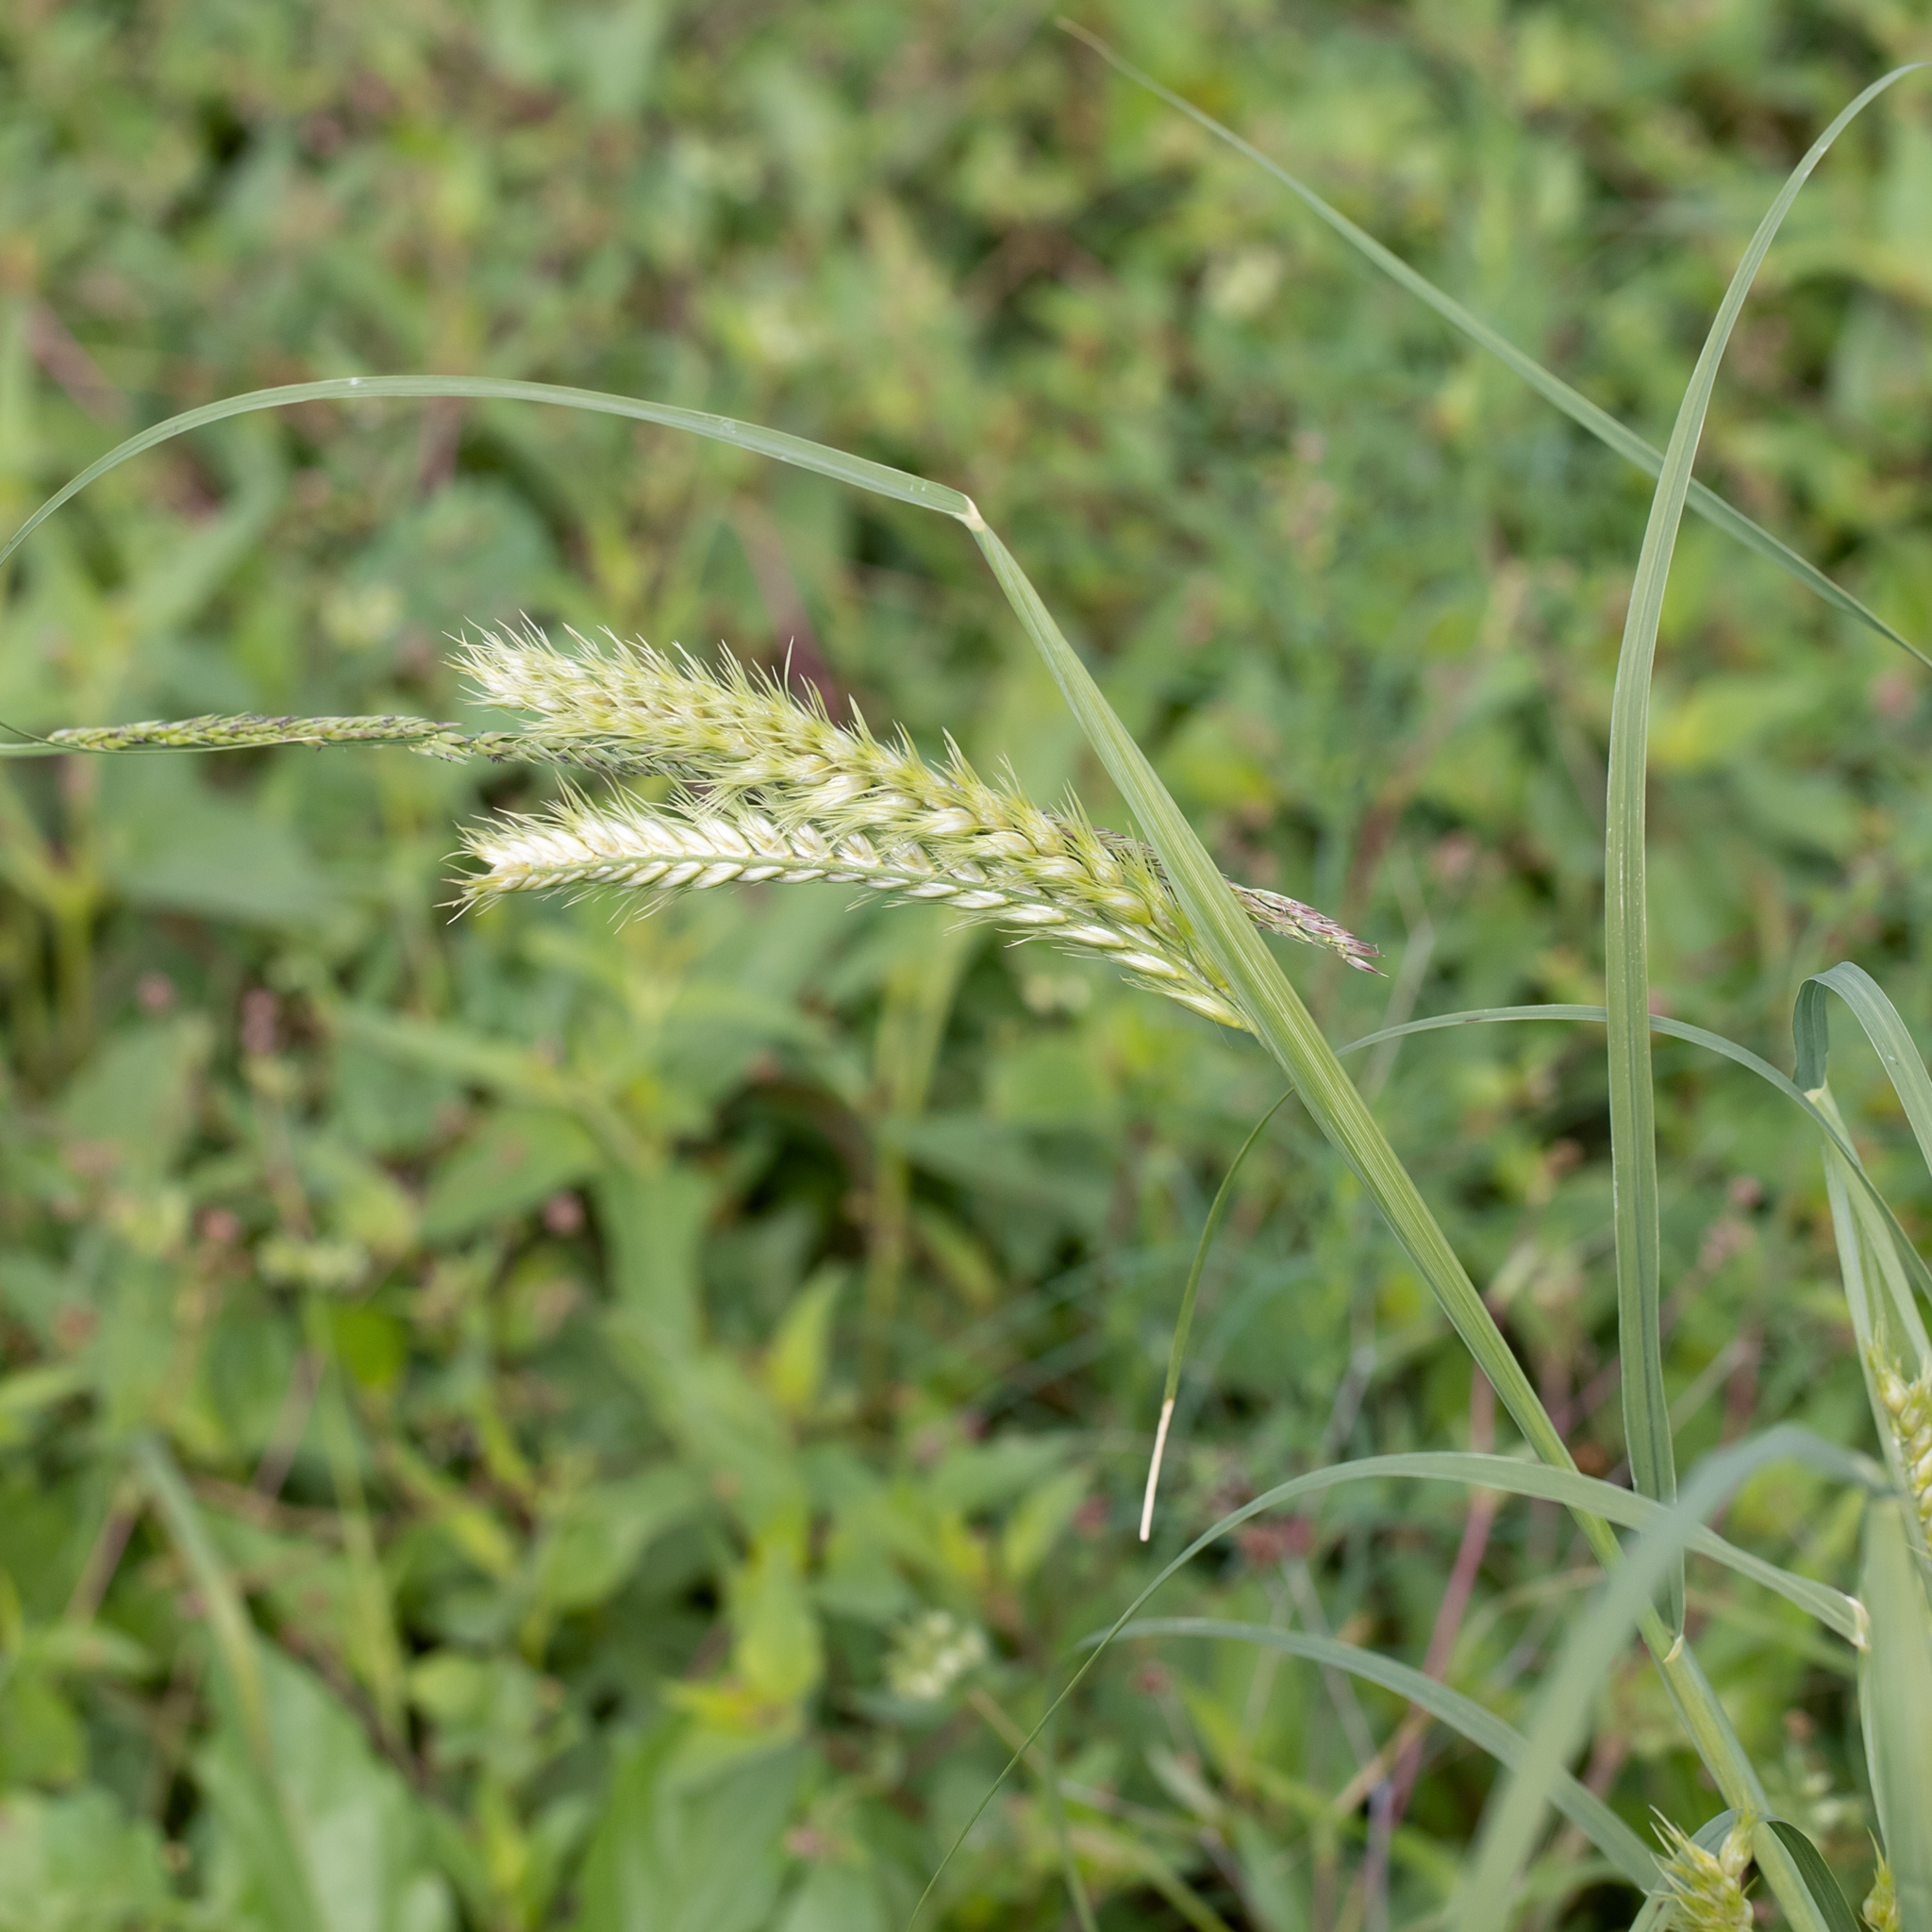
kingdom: Plantae
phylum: Tracheophyta
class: Liliopsida
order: Poales
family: Poaceae
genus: Astrebla
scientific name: Astrebla squarrosa
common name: Wheat-ear mitchell grass
